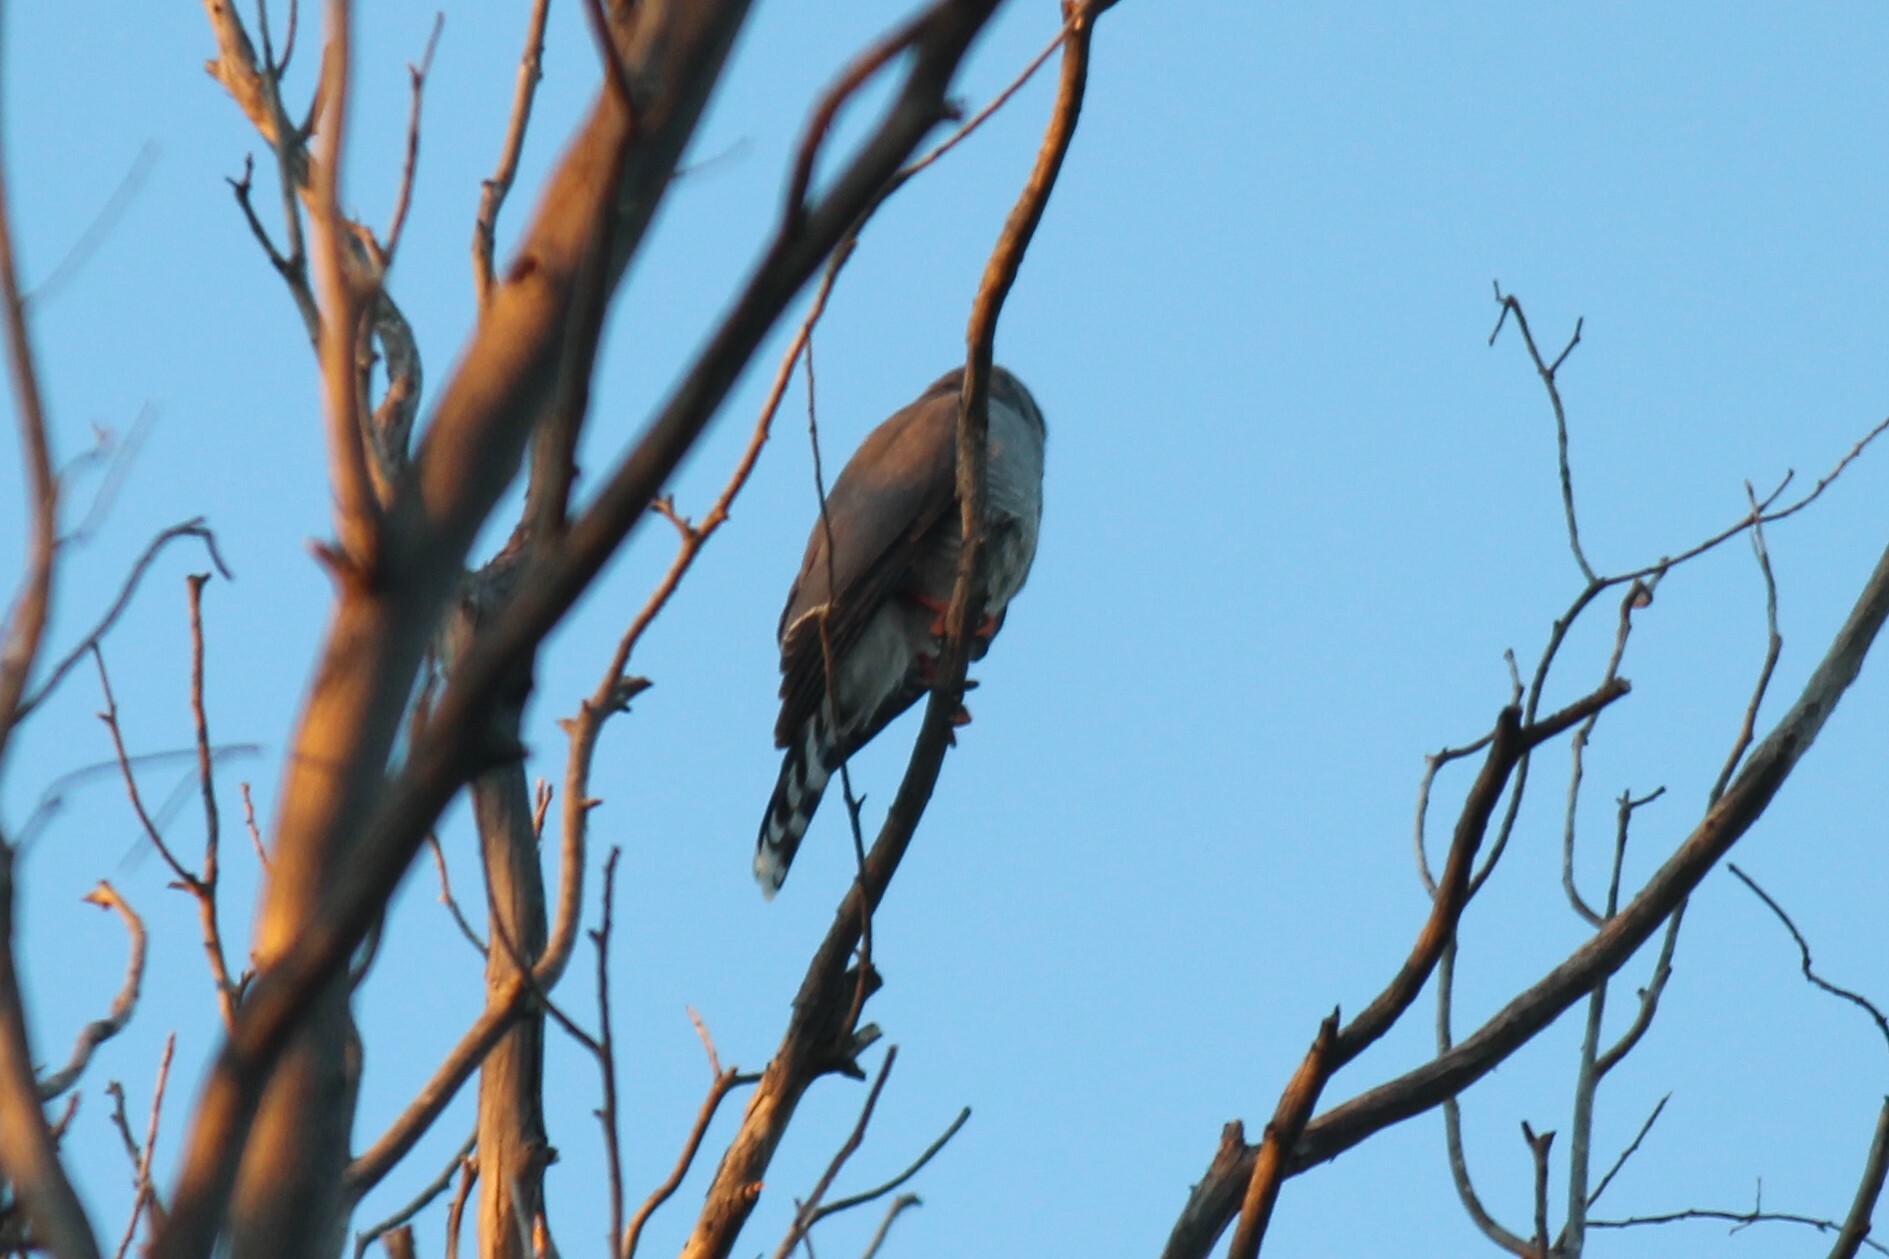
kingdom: Animalia
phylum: Chordata
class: Aves
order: Accipitriformes
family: Accipitridae
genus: Micronisus
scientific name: Micronisus gabar
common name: Gabar goshawk
